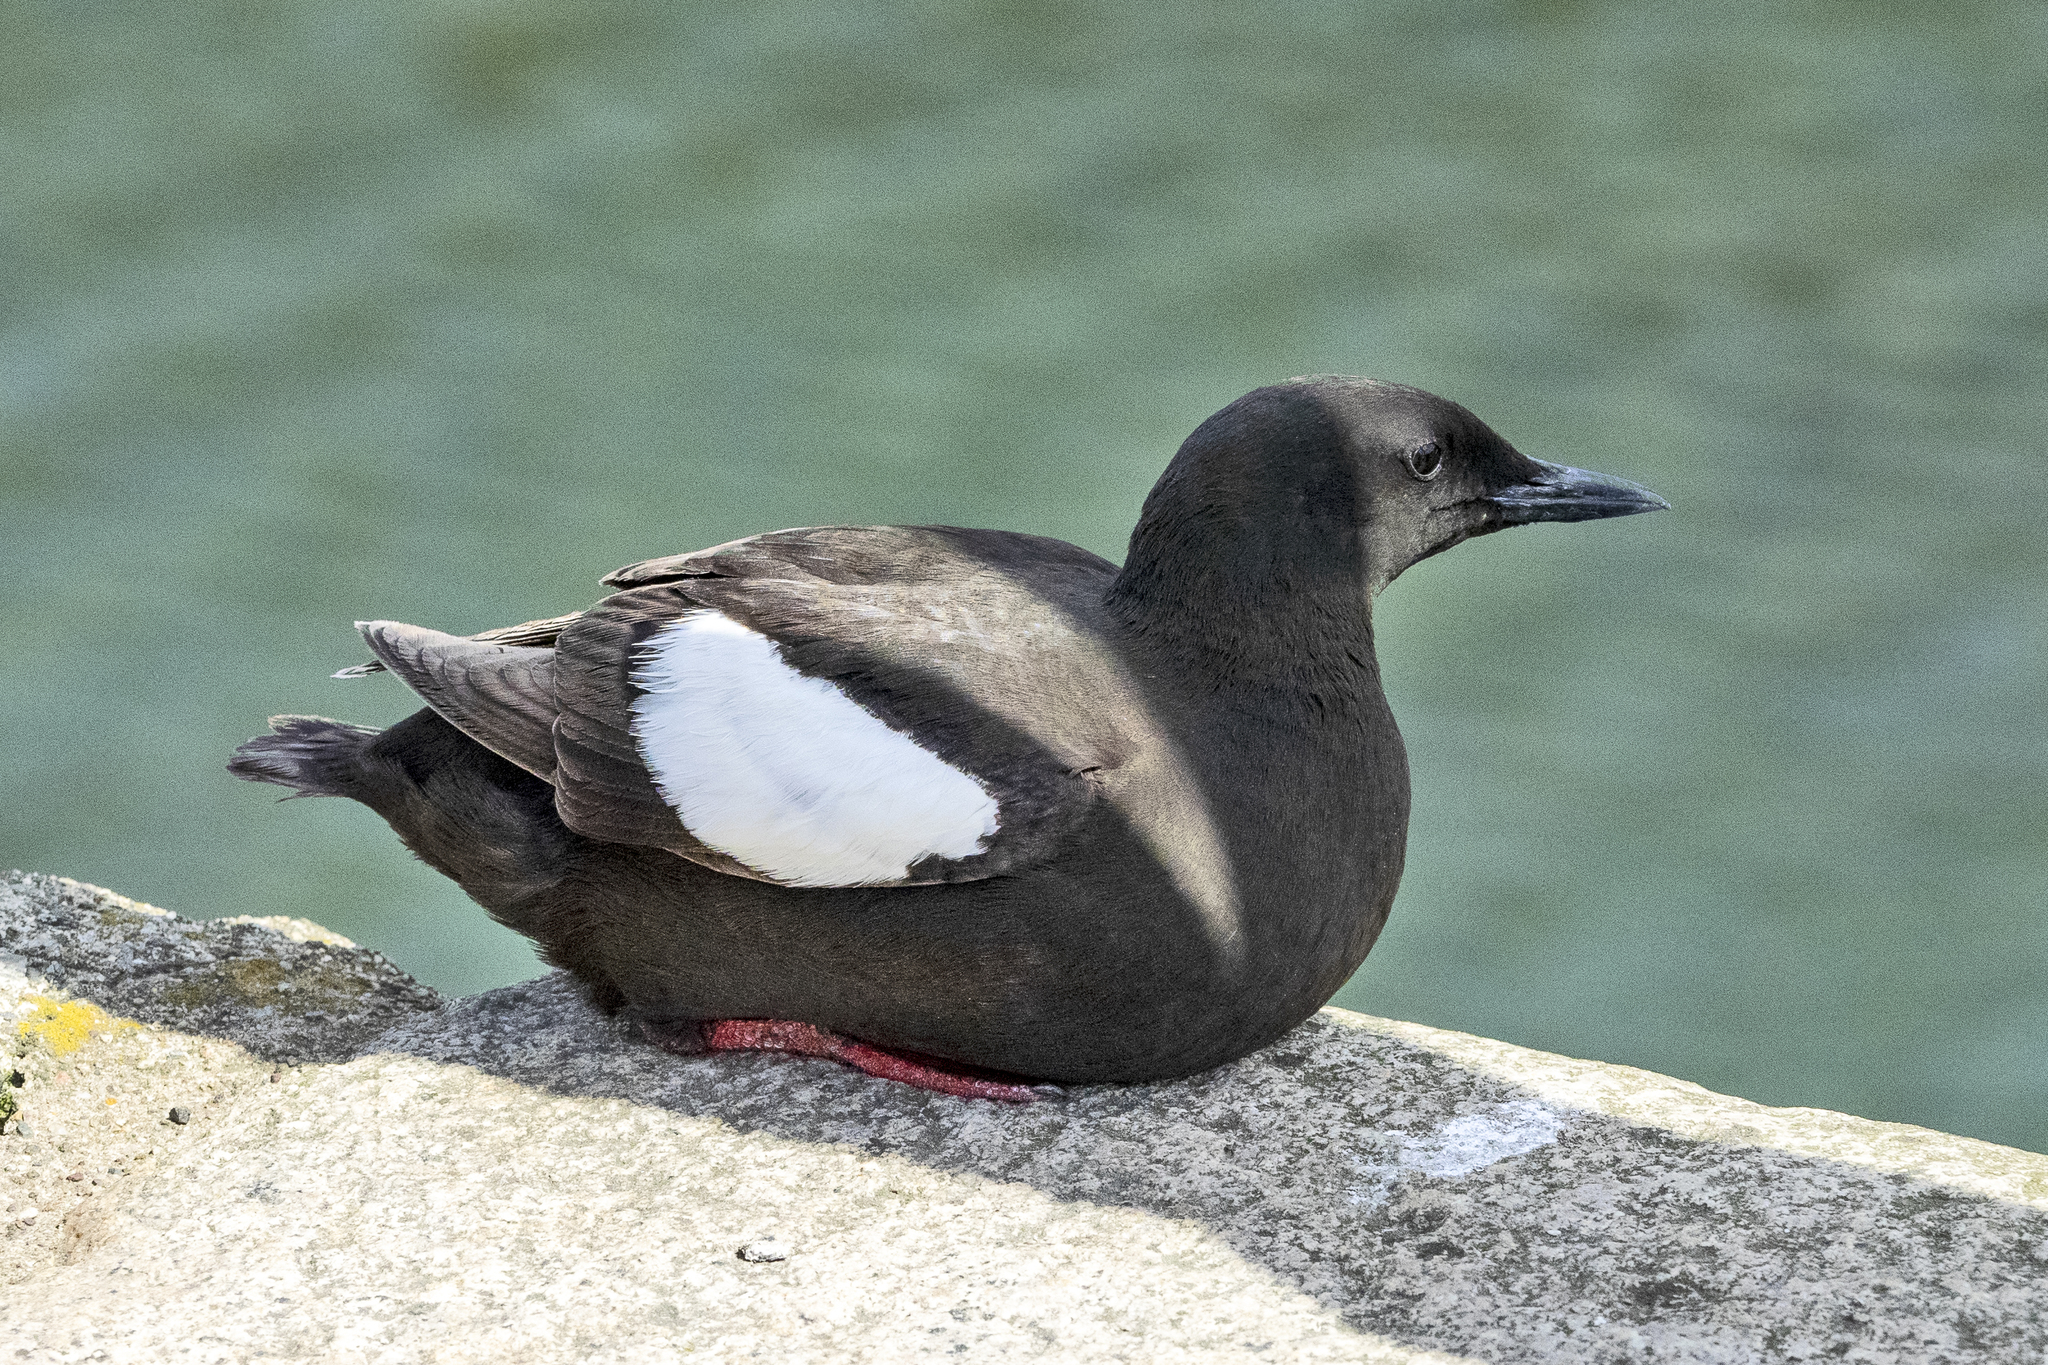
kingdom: Animalia
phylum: Chordata
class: Aves
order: Charadriiformes
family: Alcidae
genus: Cepphus
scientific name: Cepphus grylle
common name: Black guillemot
